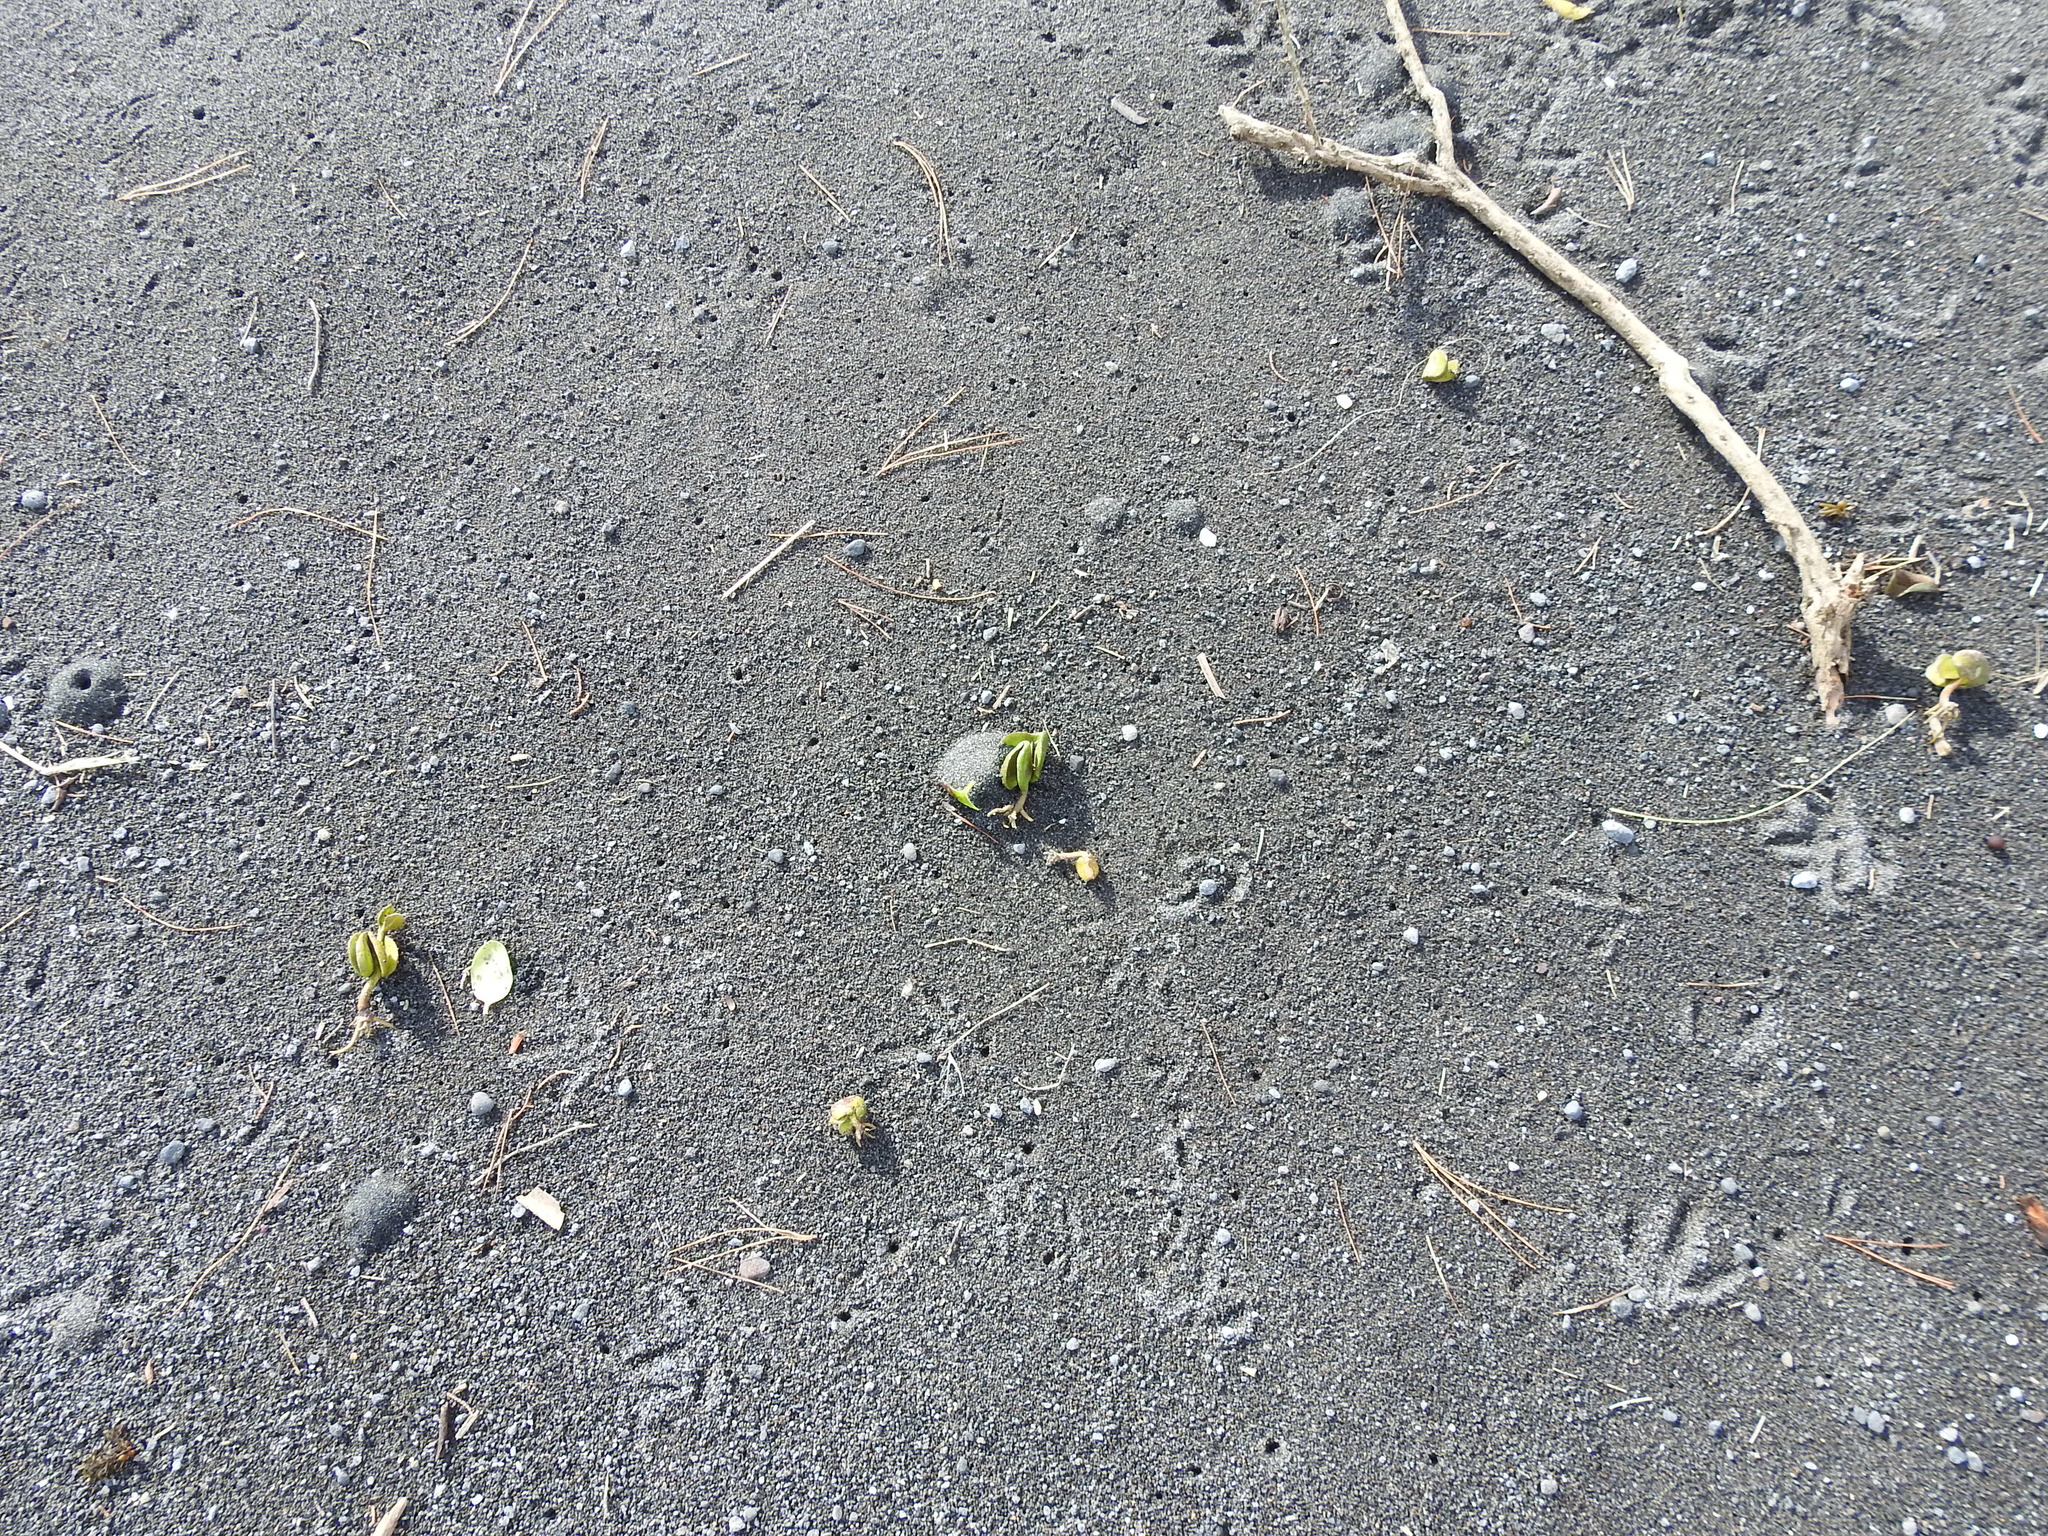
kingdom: Plantae
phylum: Tracheophyta
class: Magnoliopsida
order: Lamiales
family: Acanthaceae
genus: Avicennia
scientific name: Avicennia marina
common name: Gray mangrove
